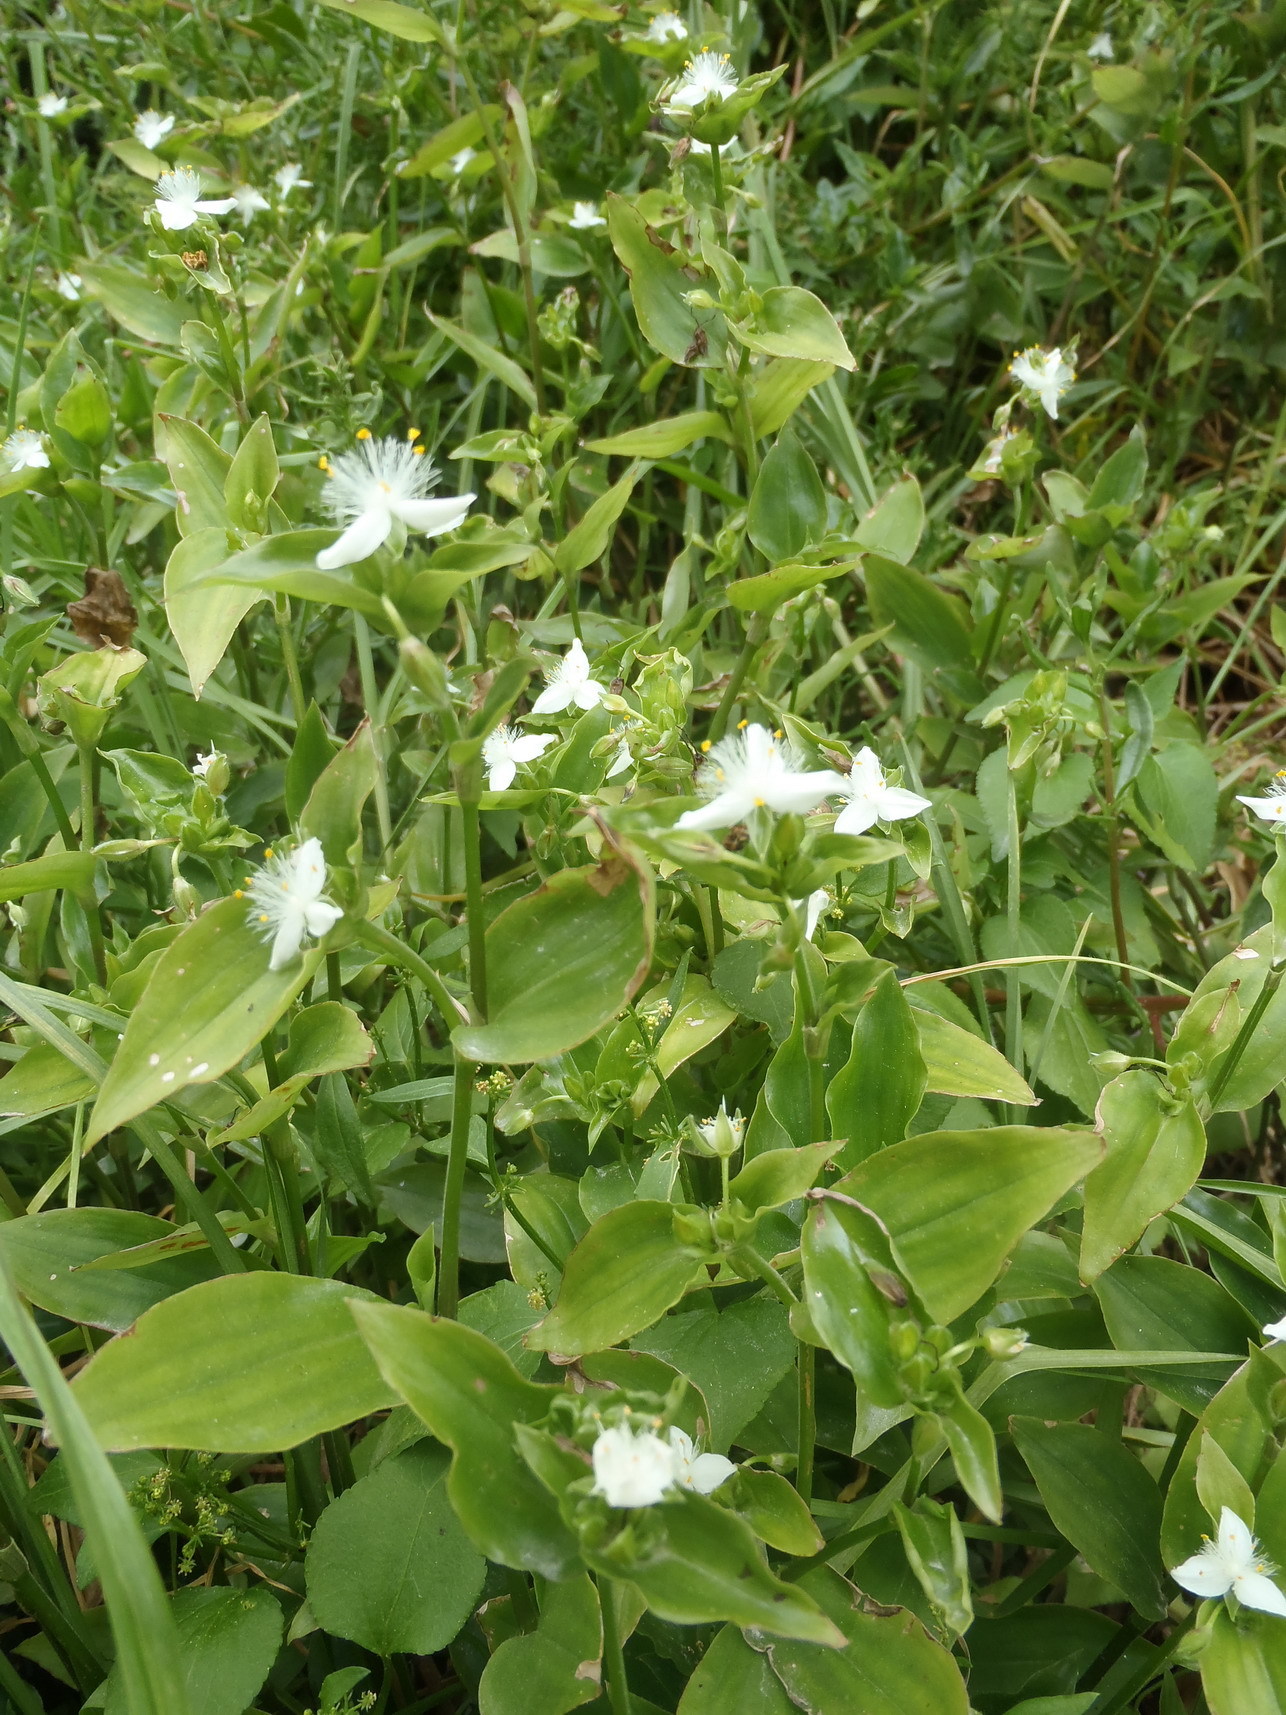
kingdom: Plantae
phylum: Tracheophyta
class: Liliopsida
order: Commelinales
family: Commelinaceae
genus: Tradescantia
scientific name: Tradescantia fluminensis
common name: Wandering-jew
